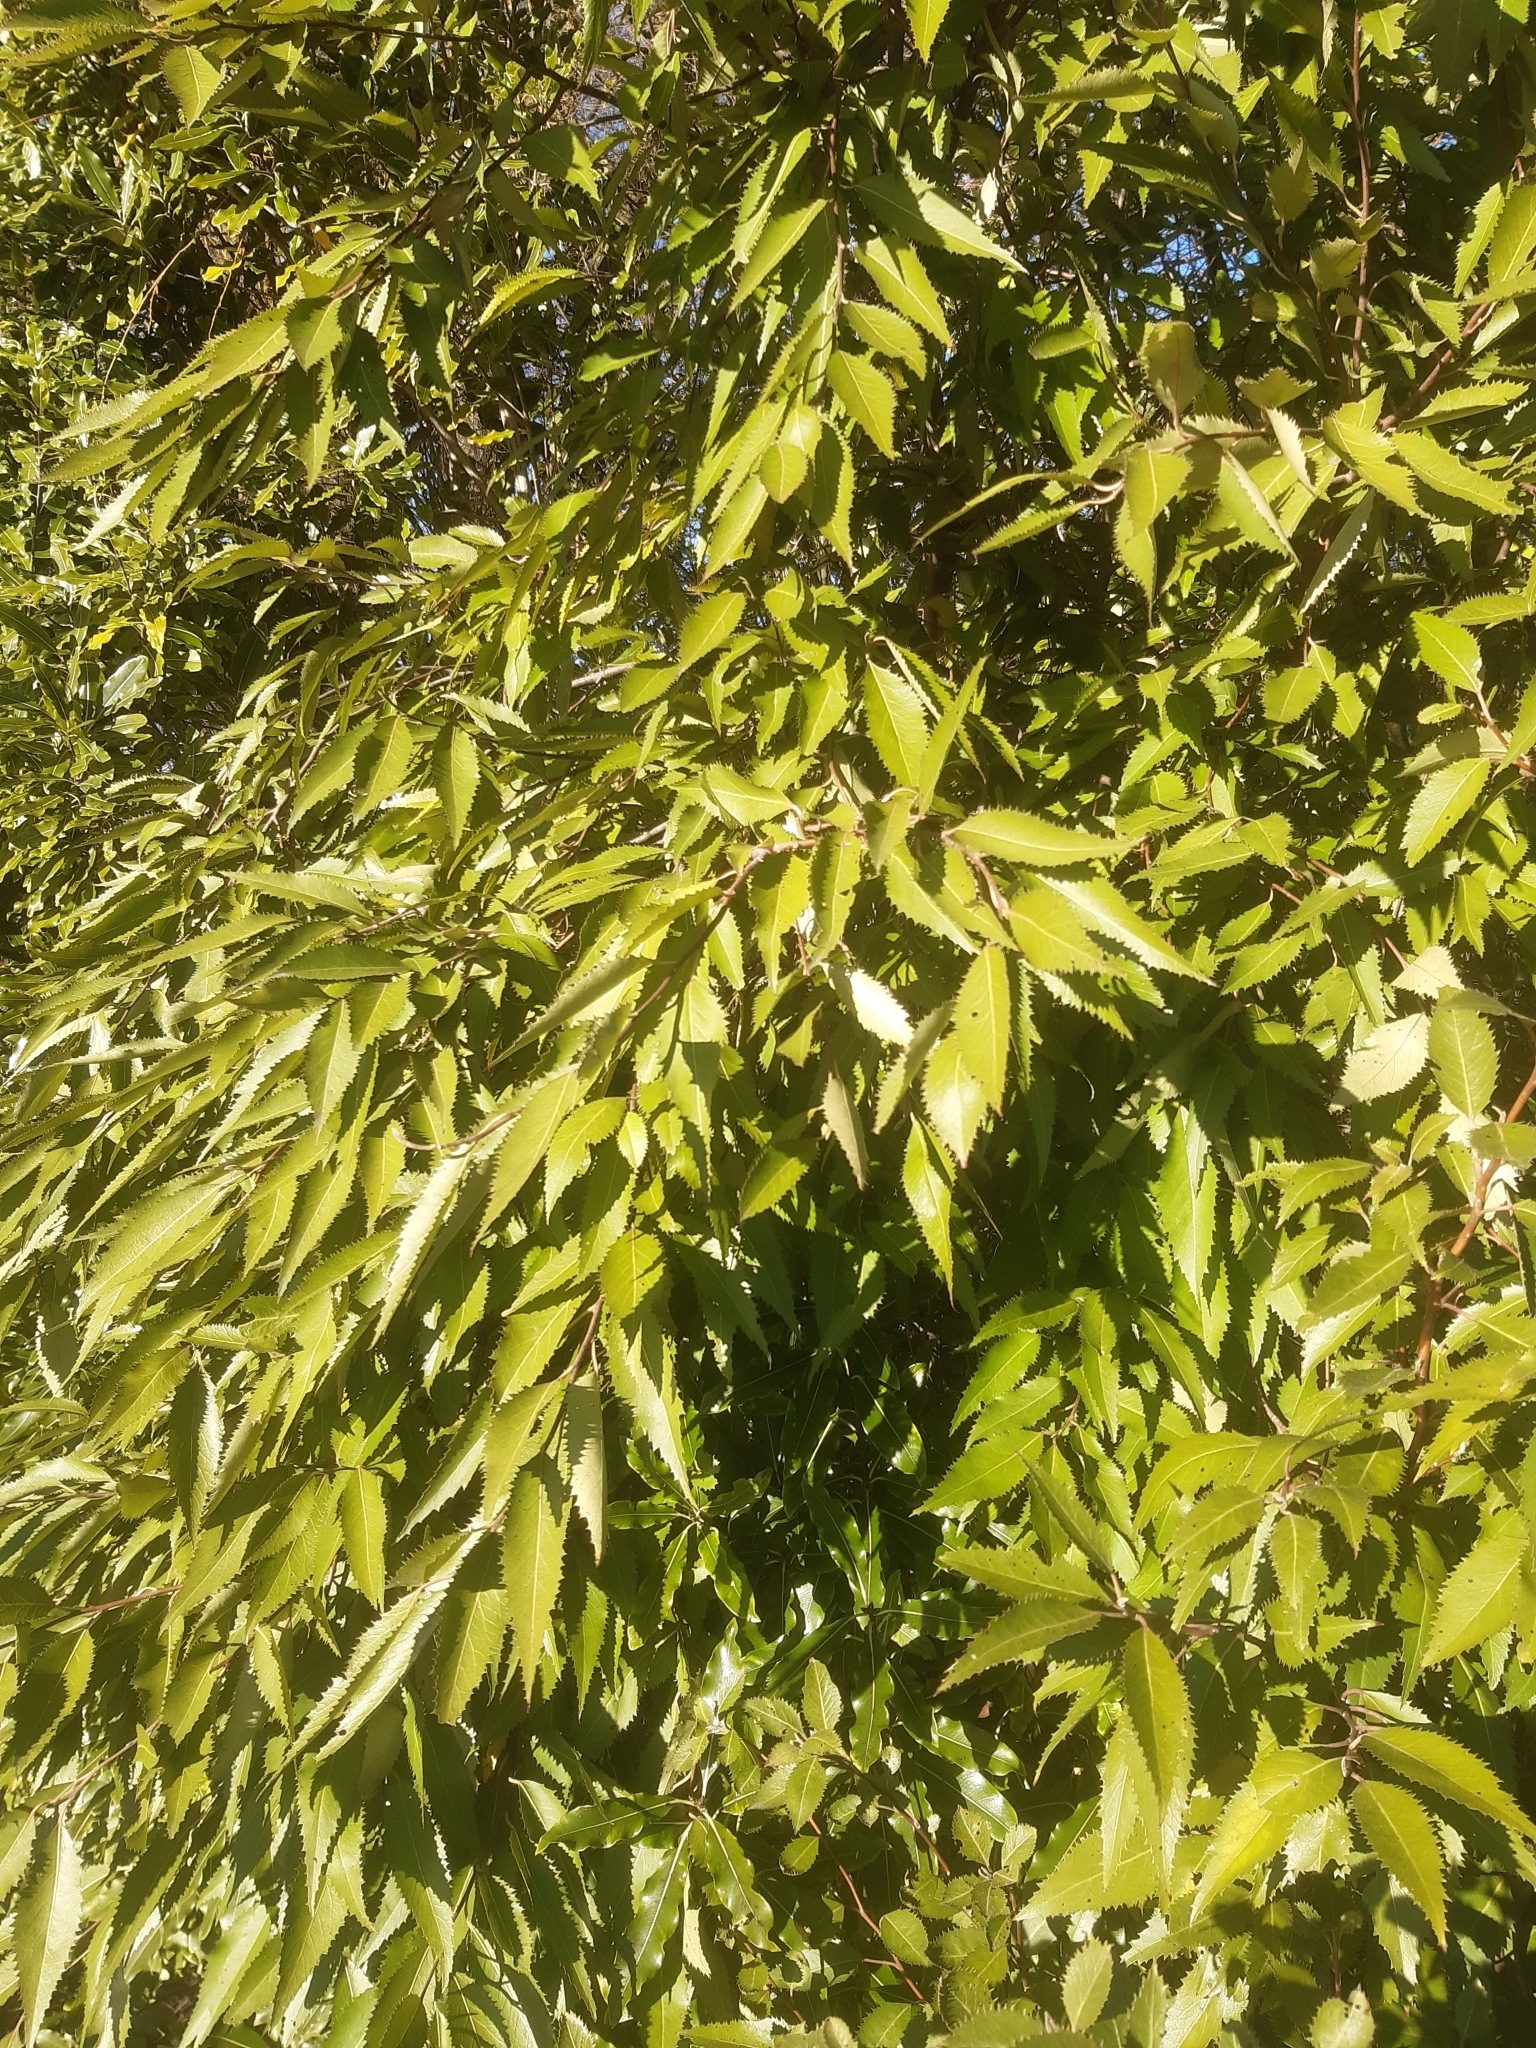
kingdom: Plantae
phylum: Tracheophyta
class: Magnoliopsida
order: Malvales
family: Malvaceae
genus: Hoheria
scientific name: Hoheria sexstylosa
